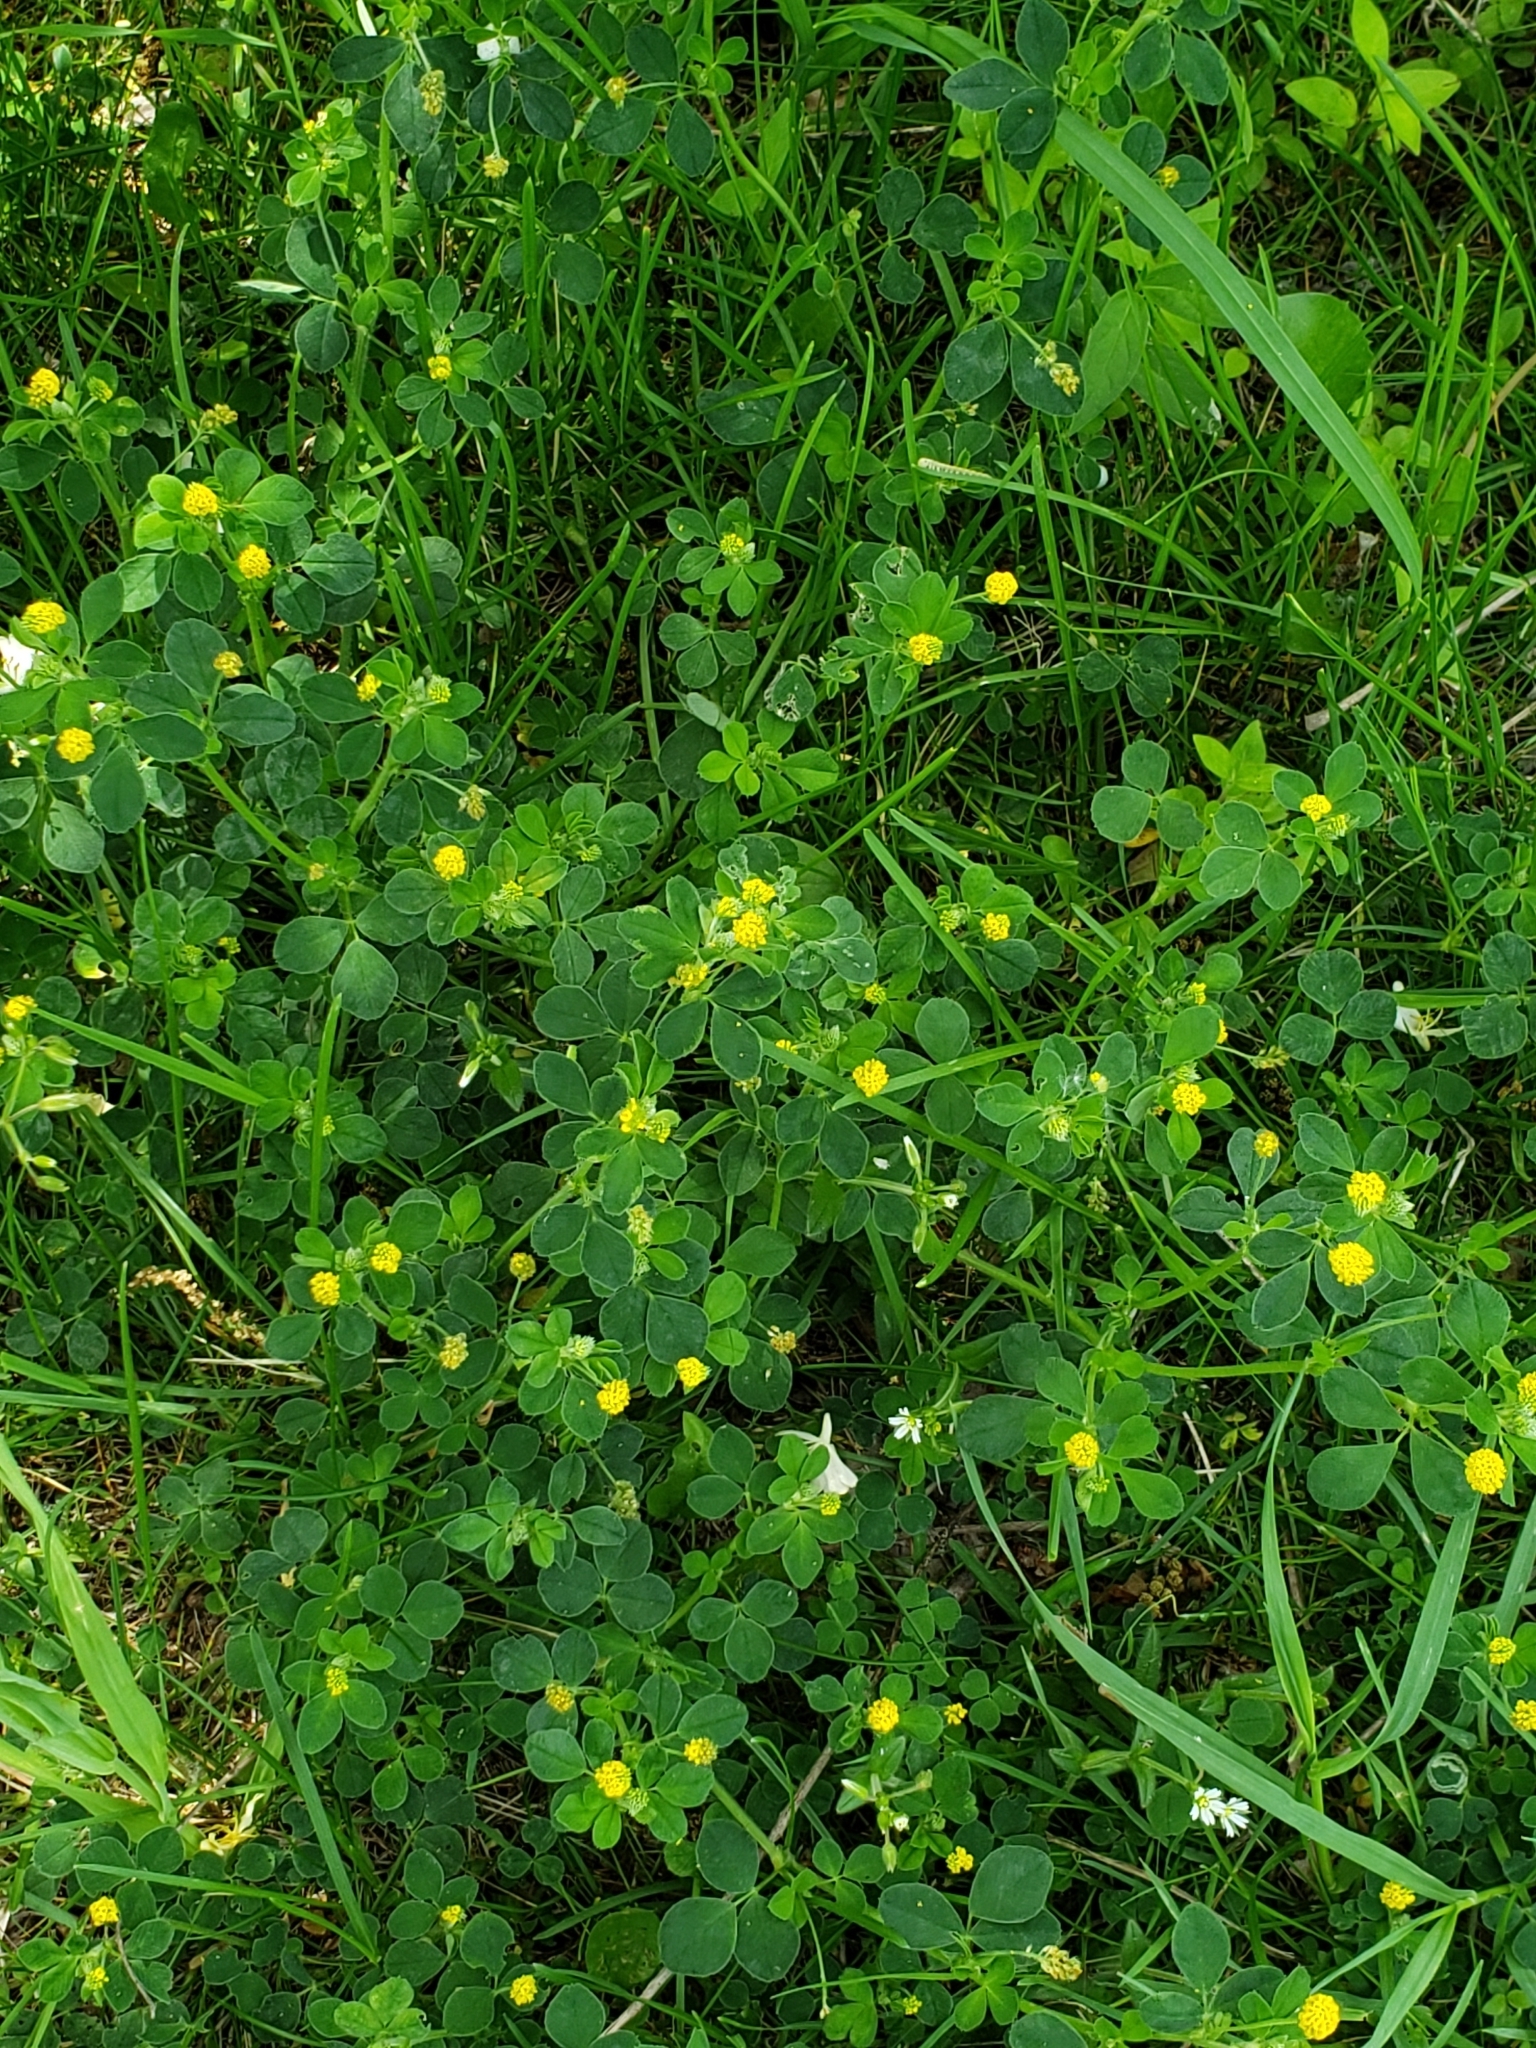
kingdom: Plantae
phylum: Tracheophyta
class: Magnoliopsida
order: Fabales
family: Fabaceae
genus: Medicago
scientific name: Medicago lupulina
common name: Black medick
